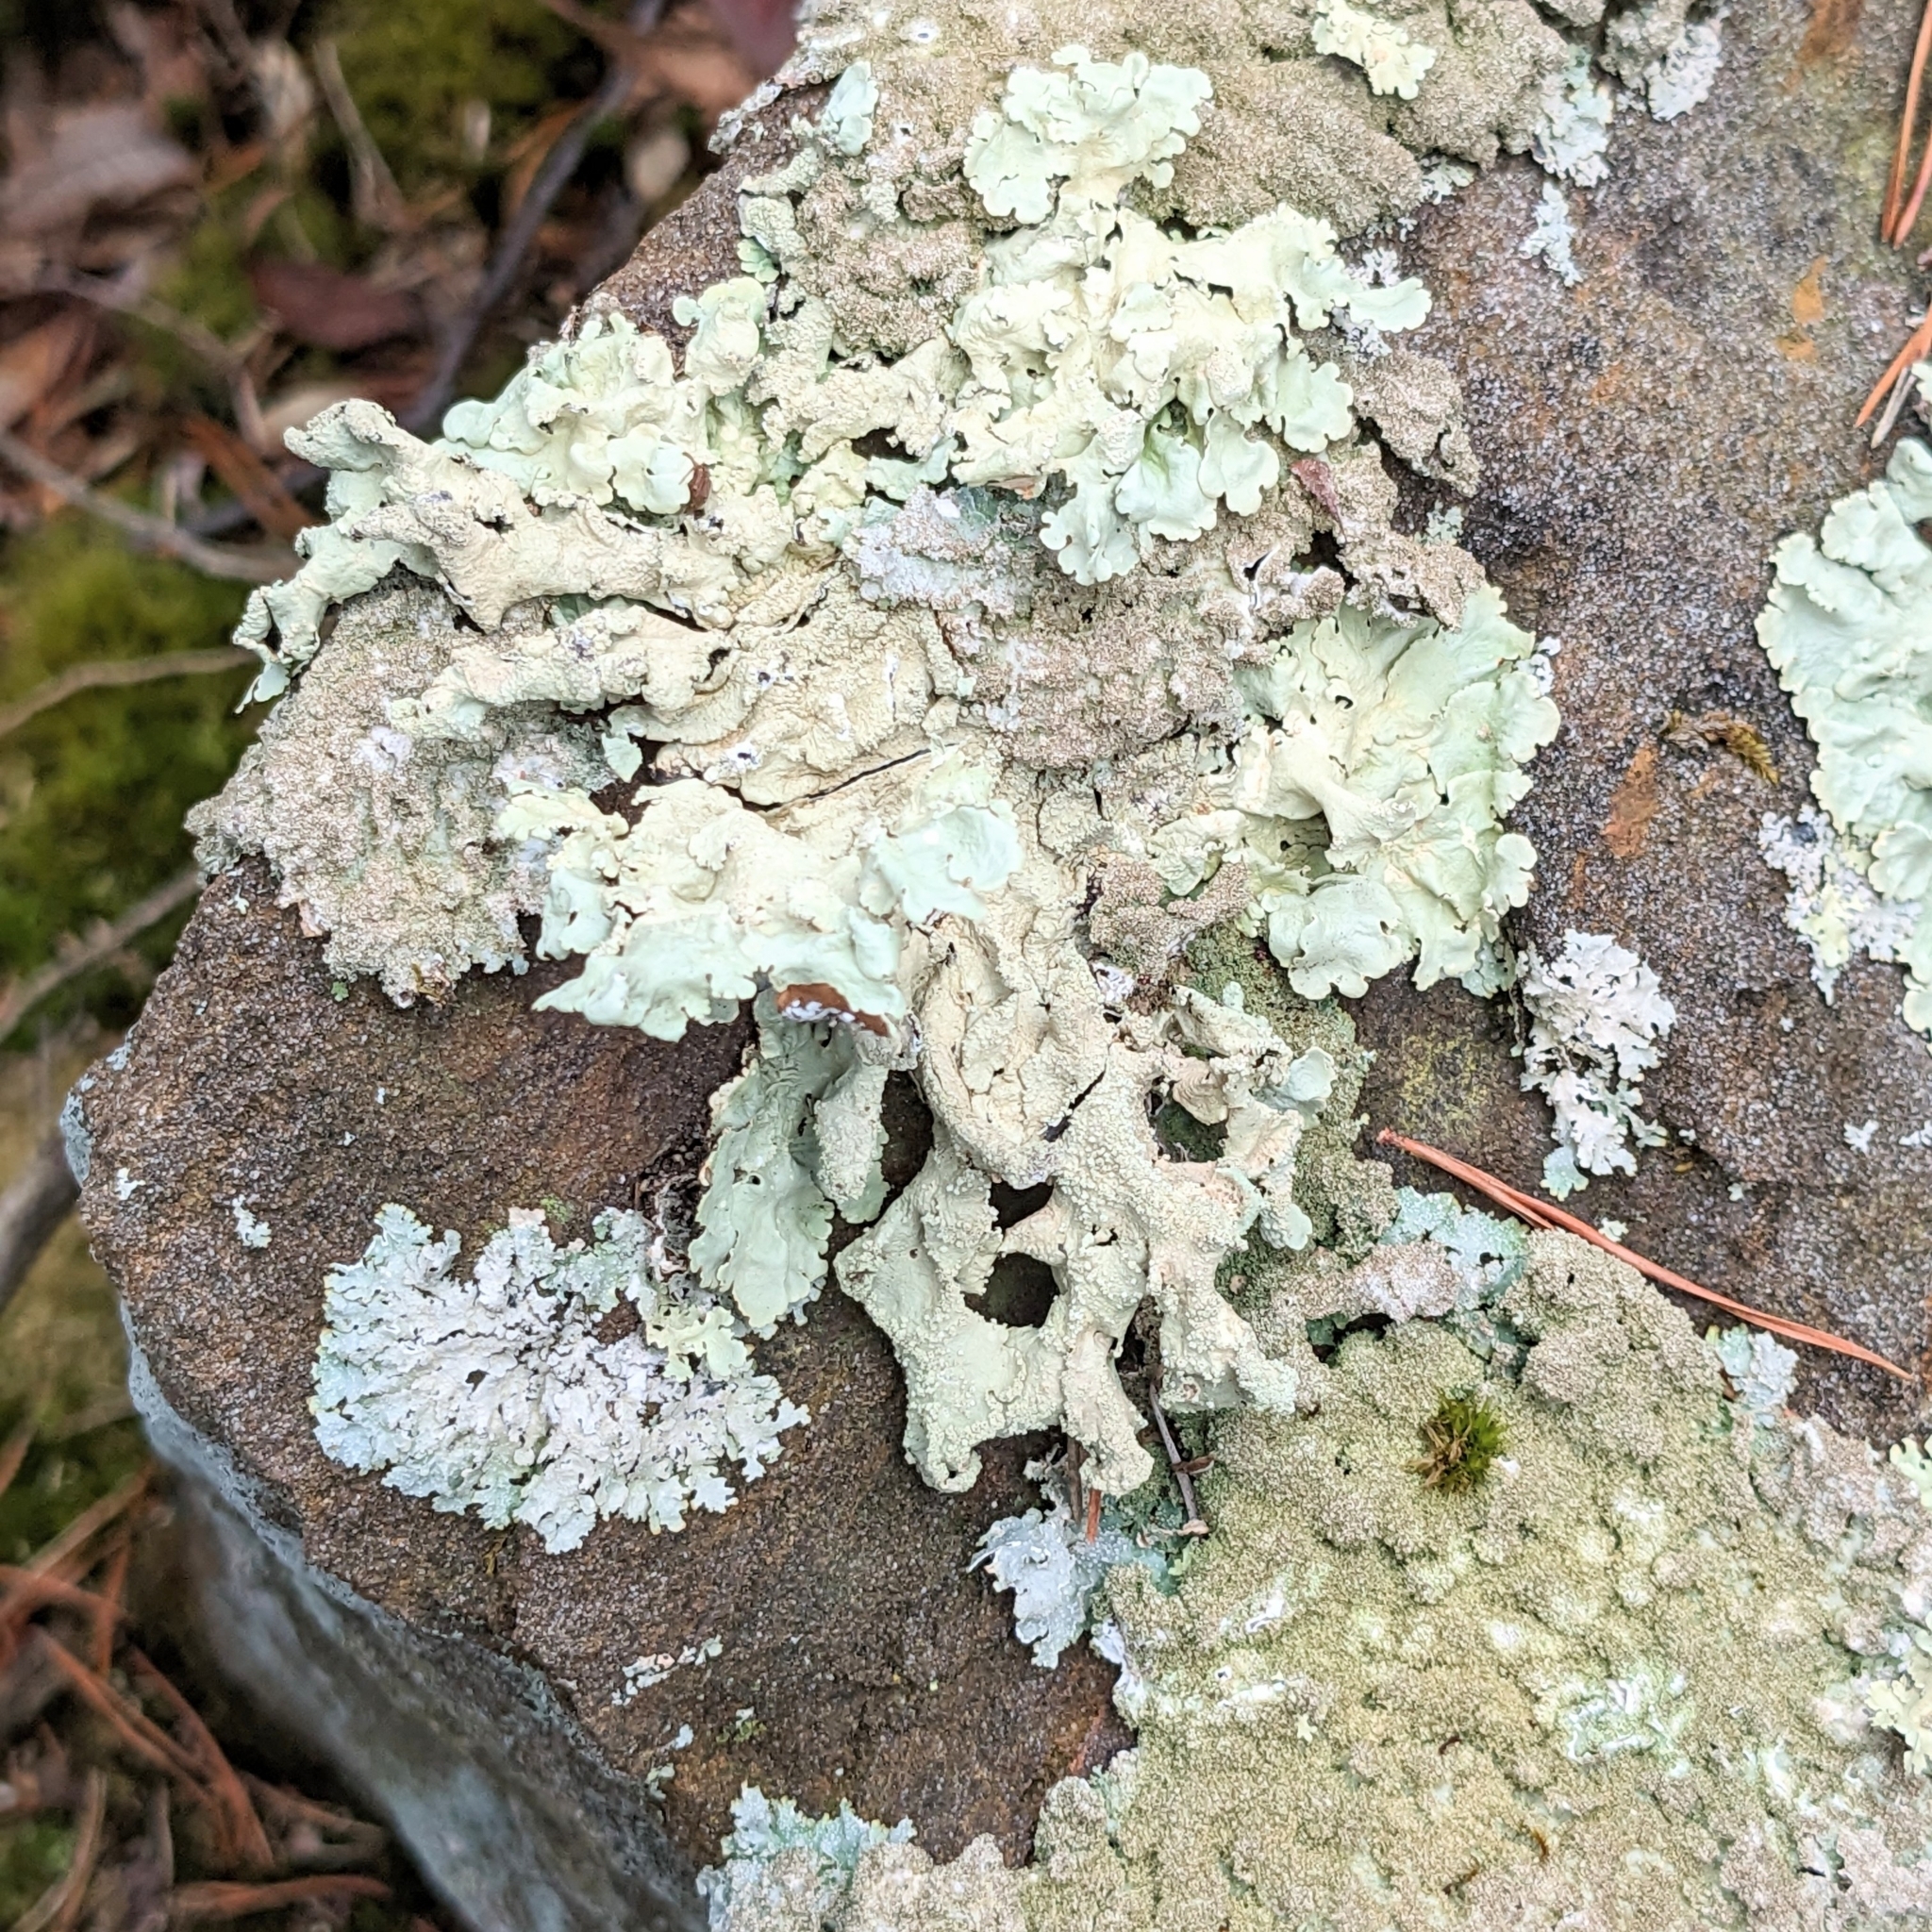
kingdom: Fungi
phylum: Ascomycota
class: Lecanoromycetes
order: Lecanorales
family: Parmeliaceae
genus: Flavoparmelia
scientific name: Flavoparmelia baltimorensis
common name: Rock greenshield
